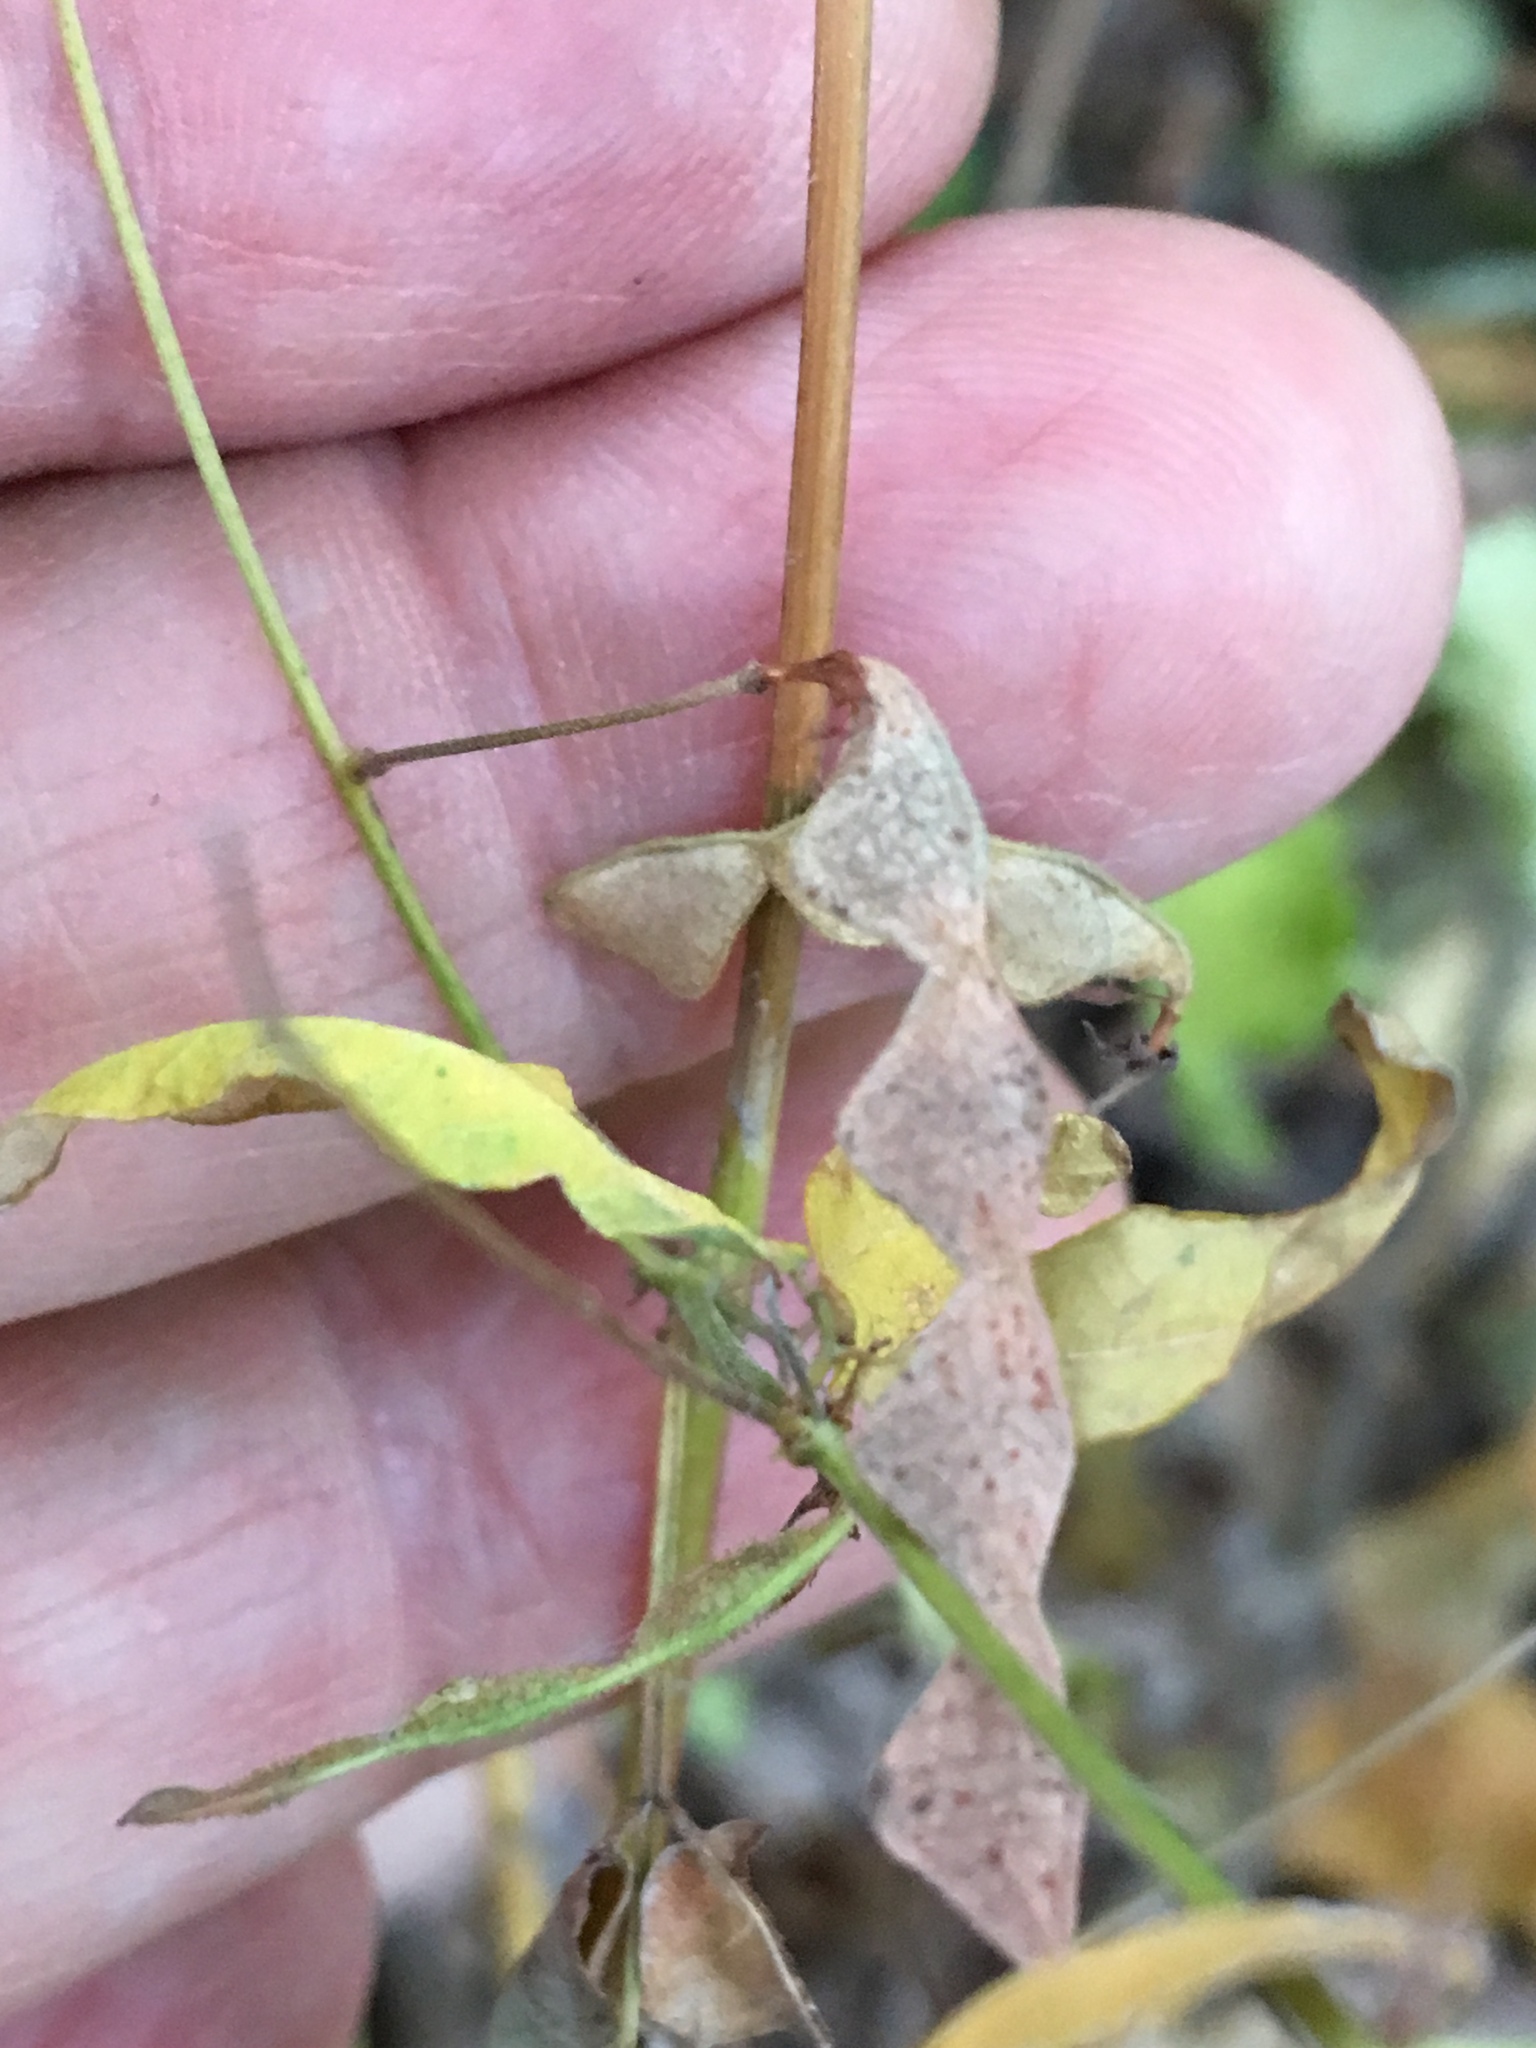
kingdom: Plantae
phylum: Tracheophyta
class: Magnoliopsida
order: Fabales
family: Fabaceae
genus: Desmodium
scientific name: Desmodium paniculatum
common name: Panicled tick-clover
